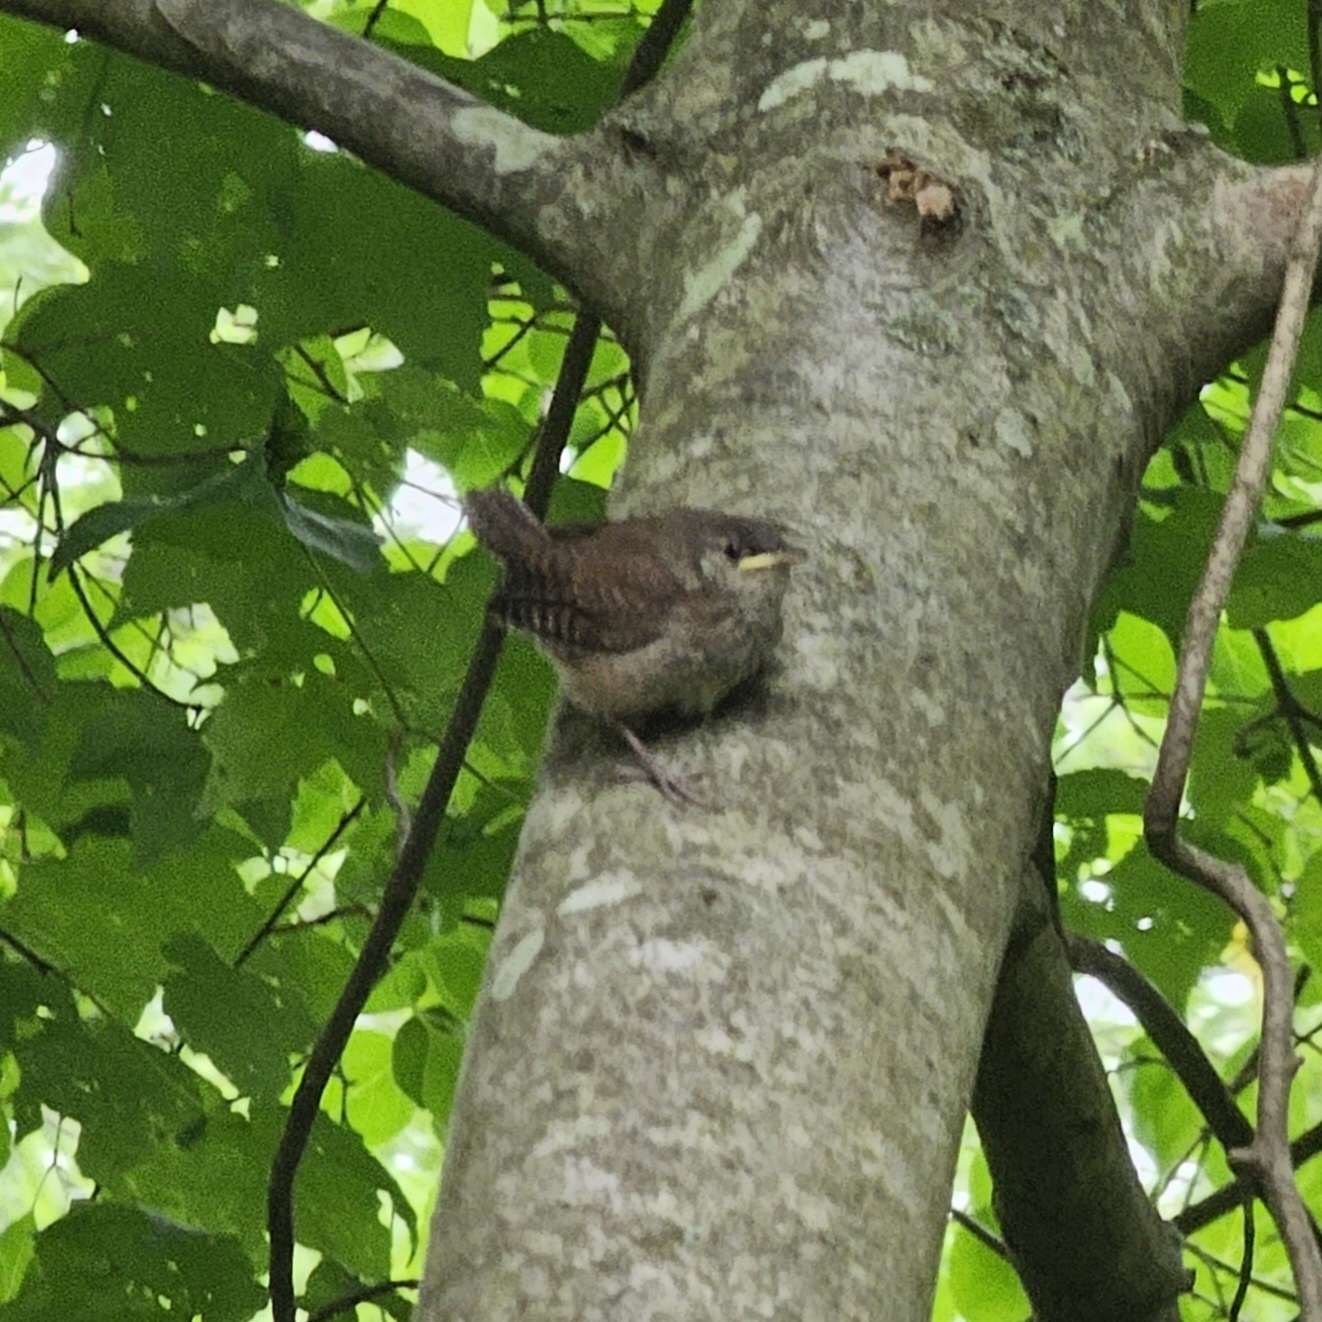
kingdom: Animalia
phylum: Chordata
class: Aves
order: Passeriformes
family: Troglodytidae
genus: Troglodytes
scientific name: Troglodytes aedon
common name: House wren
